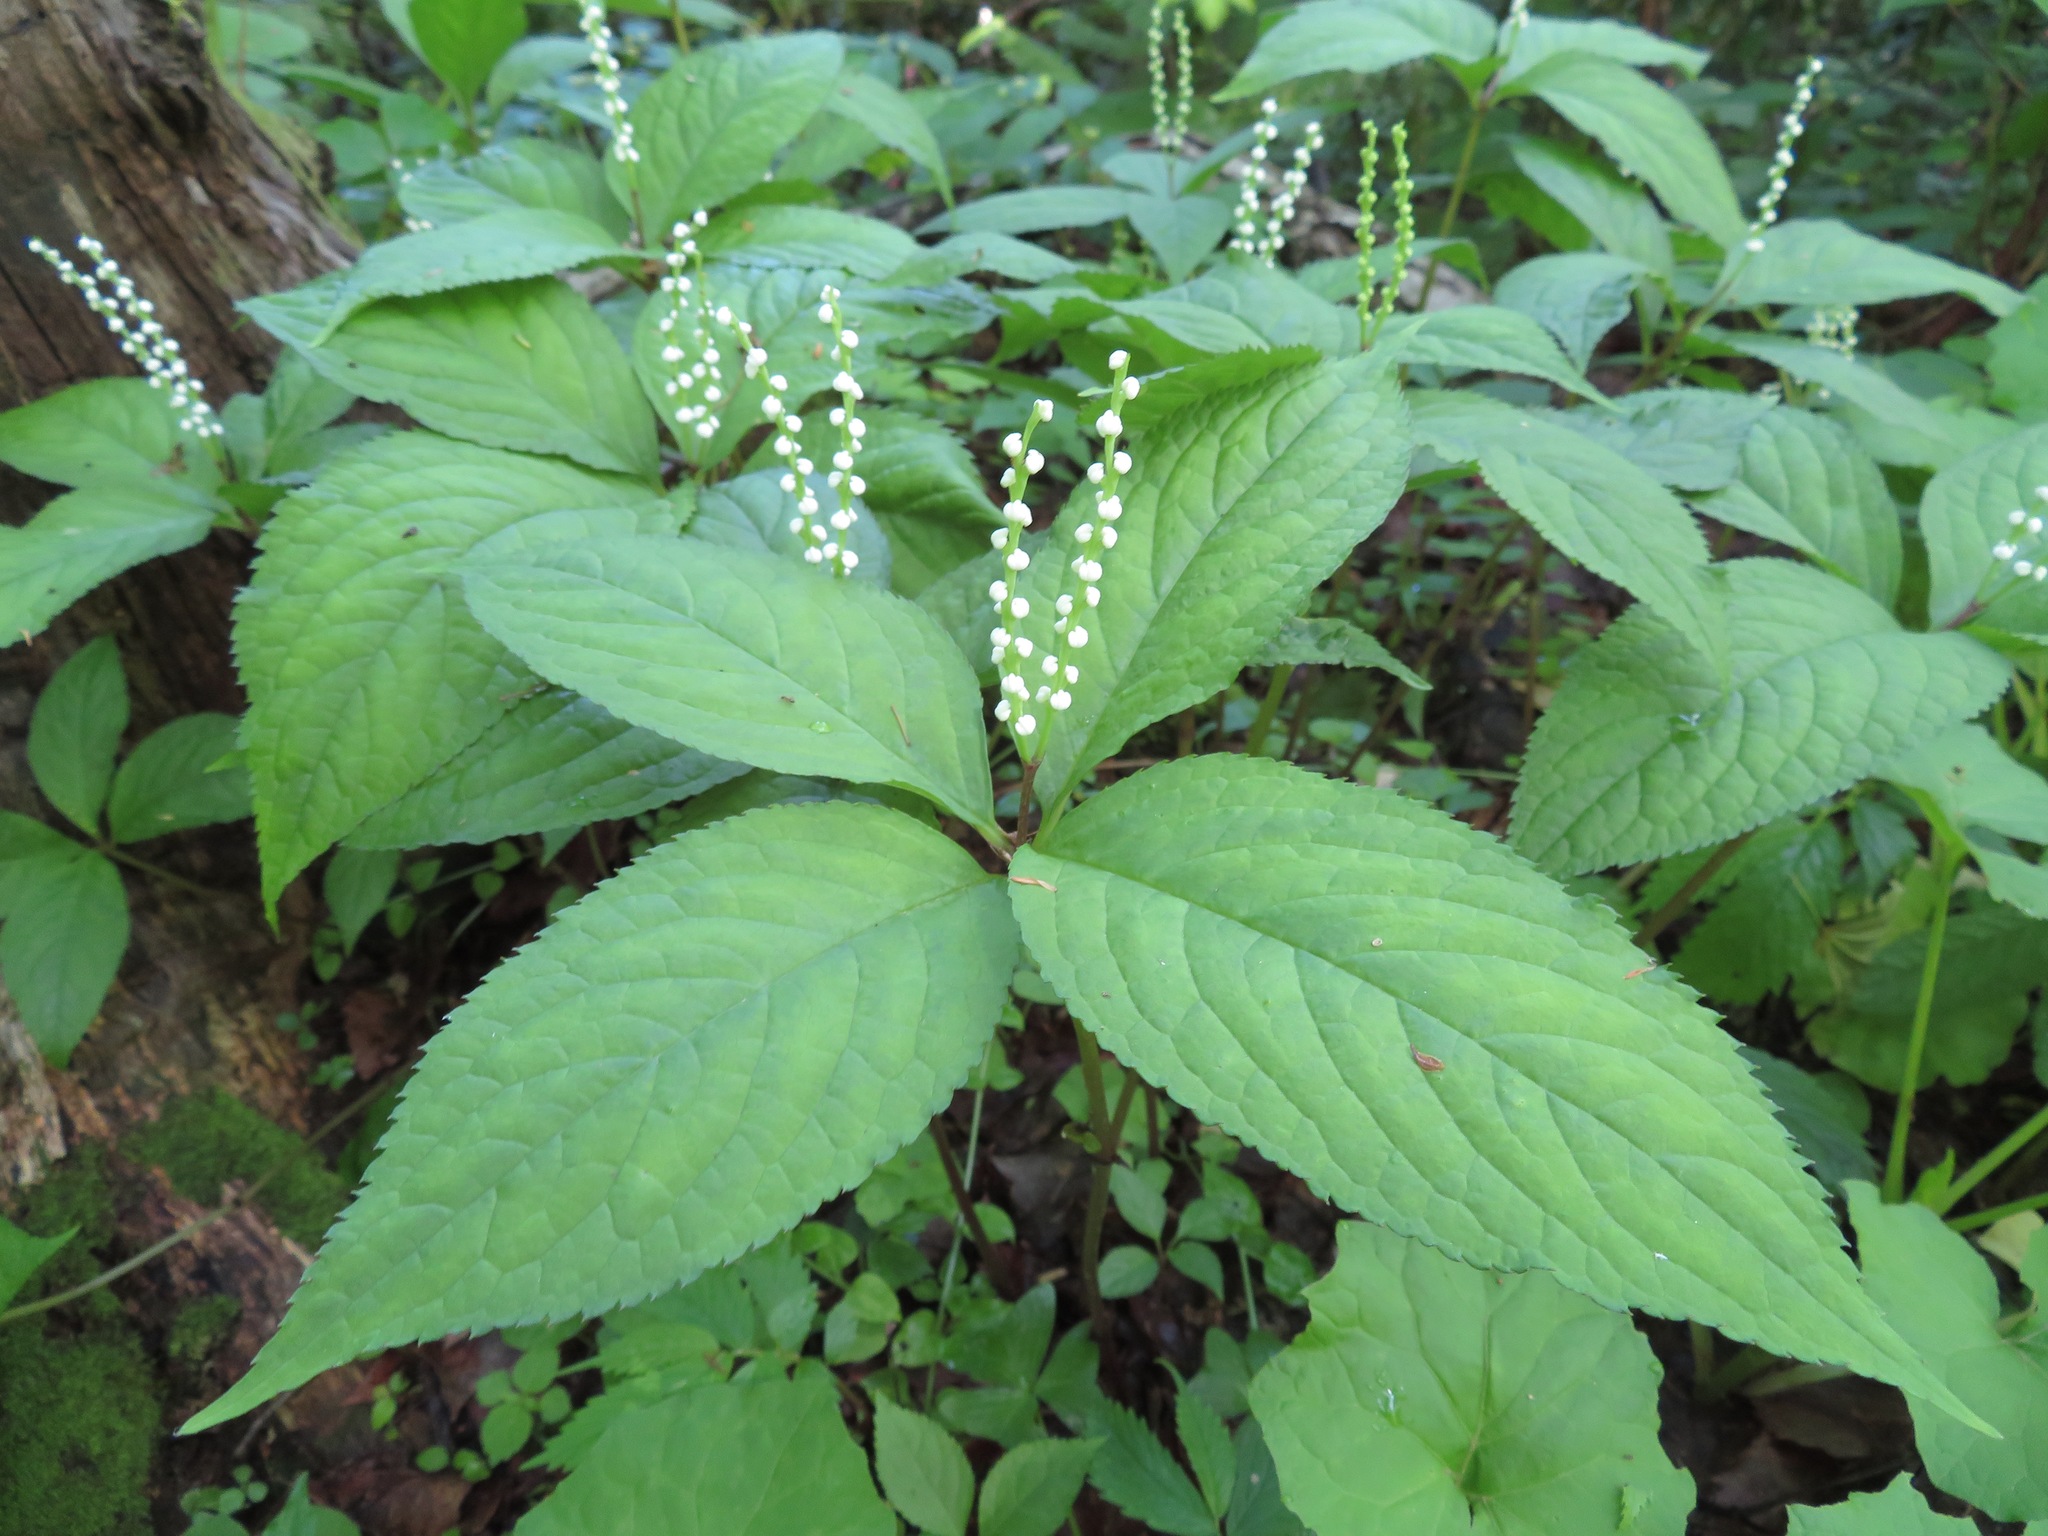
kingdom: Plantae
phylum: Tracheophyta
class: Magnoliopsida
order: Chloranthales
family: Chloranthaceae
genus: Chloranthus
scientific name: Chloranthus serratus
